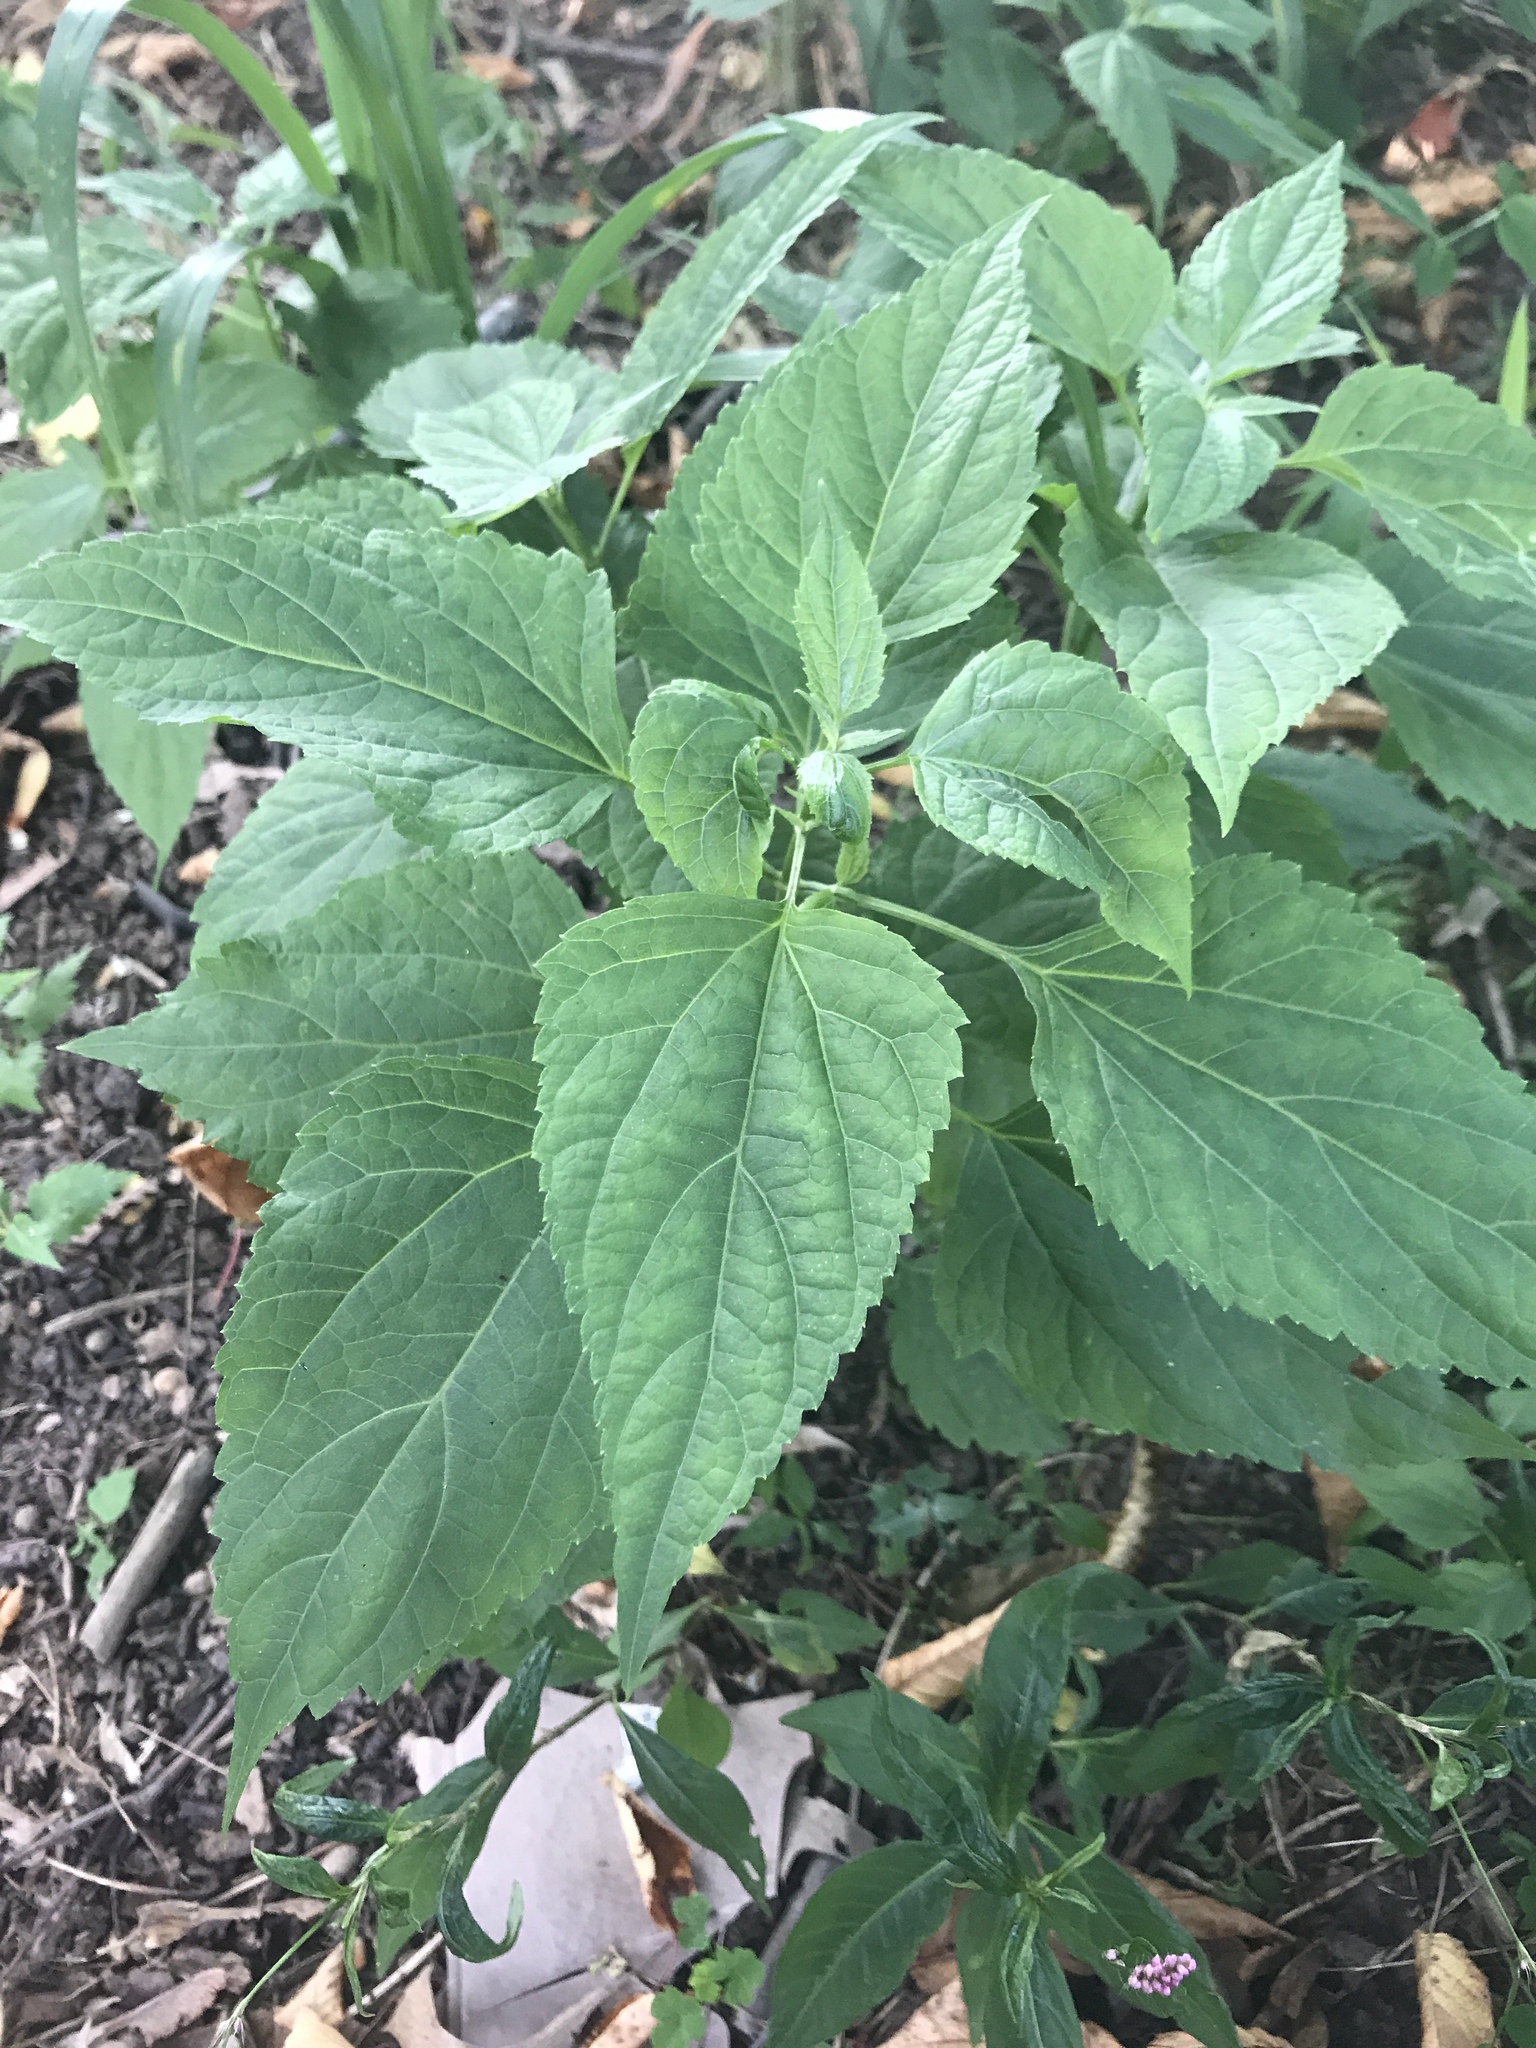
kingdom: Plantae
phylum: Tracheophyta
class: Magnoliopsida
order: Asterales
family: Asteraceae
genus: Ageratina
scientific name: Ageratina altissima
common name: White snakeroot
